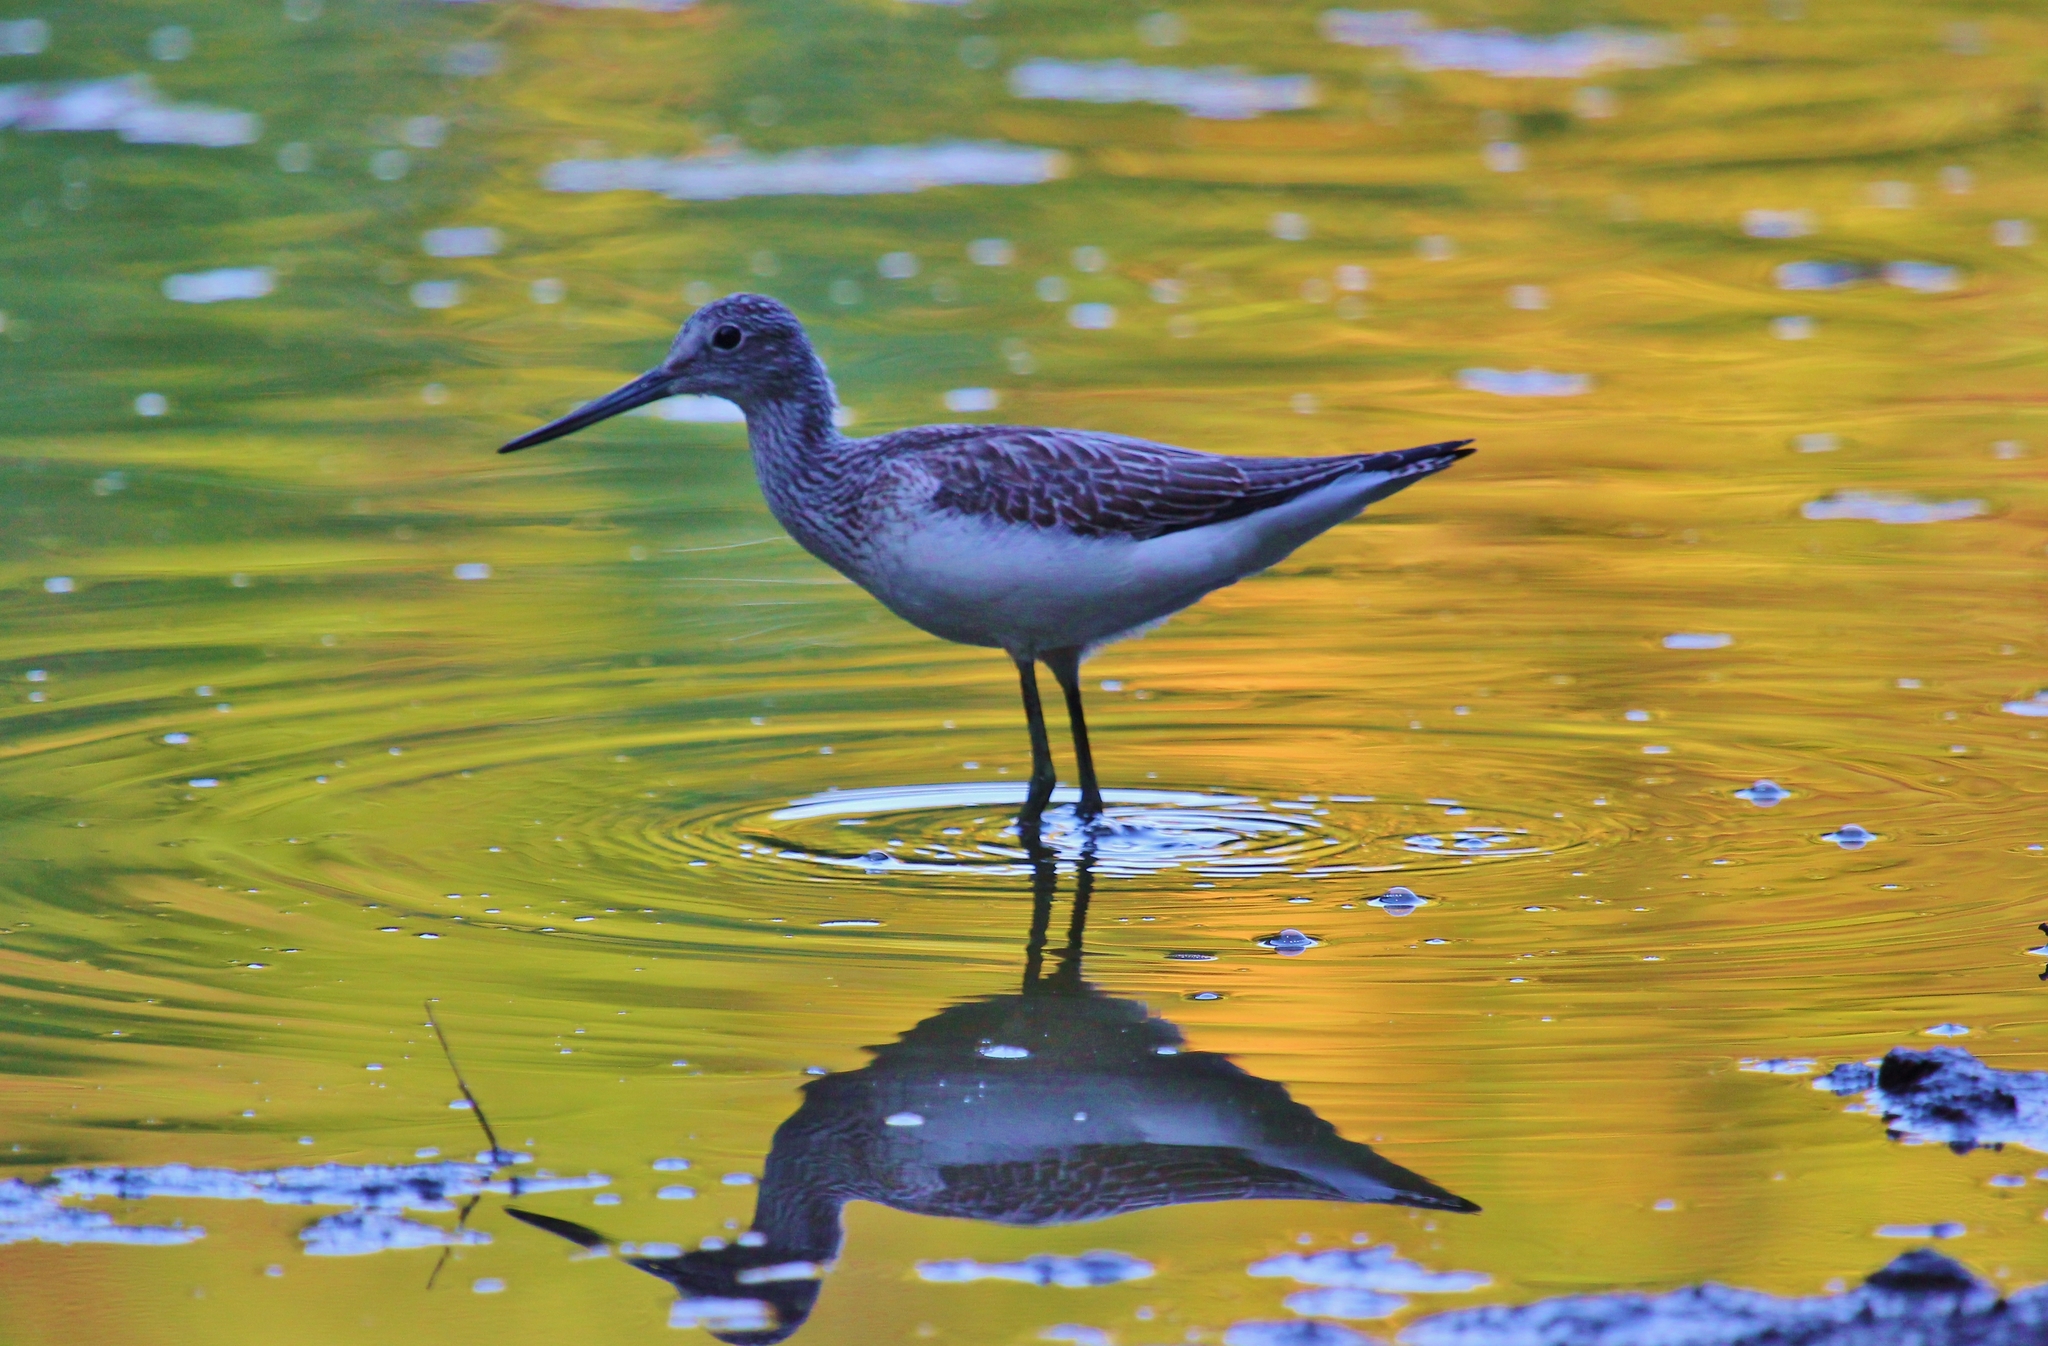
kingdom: Animalia
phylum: Chordata
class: Aves
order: Charadriiformes
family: Scolopacidae
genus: Tringa
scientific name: Tringa nebularia
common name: Common greenshank
